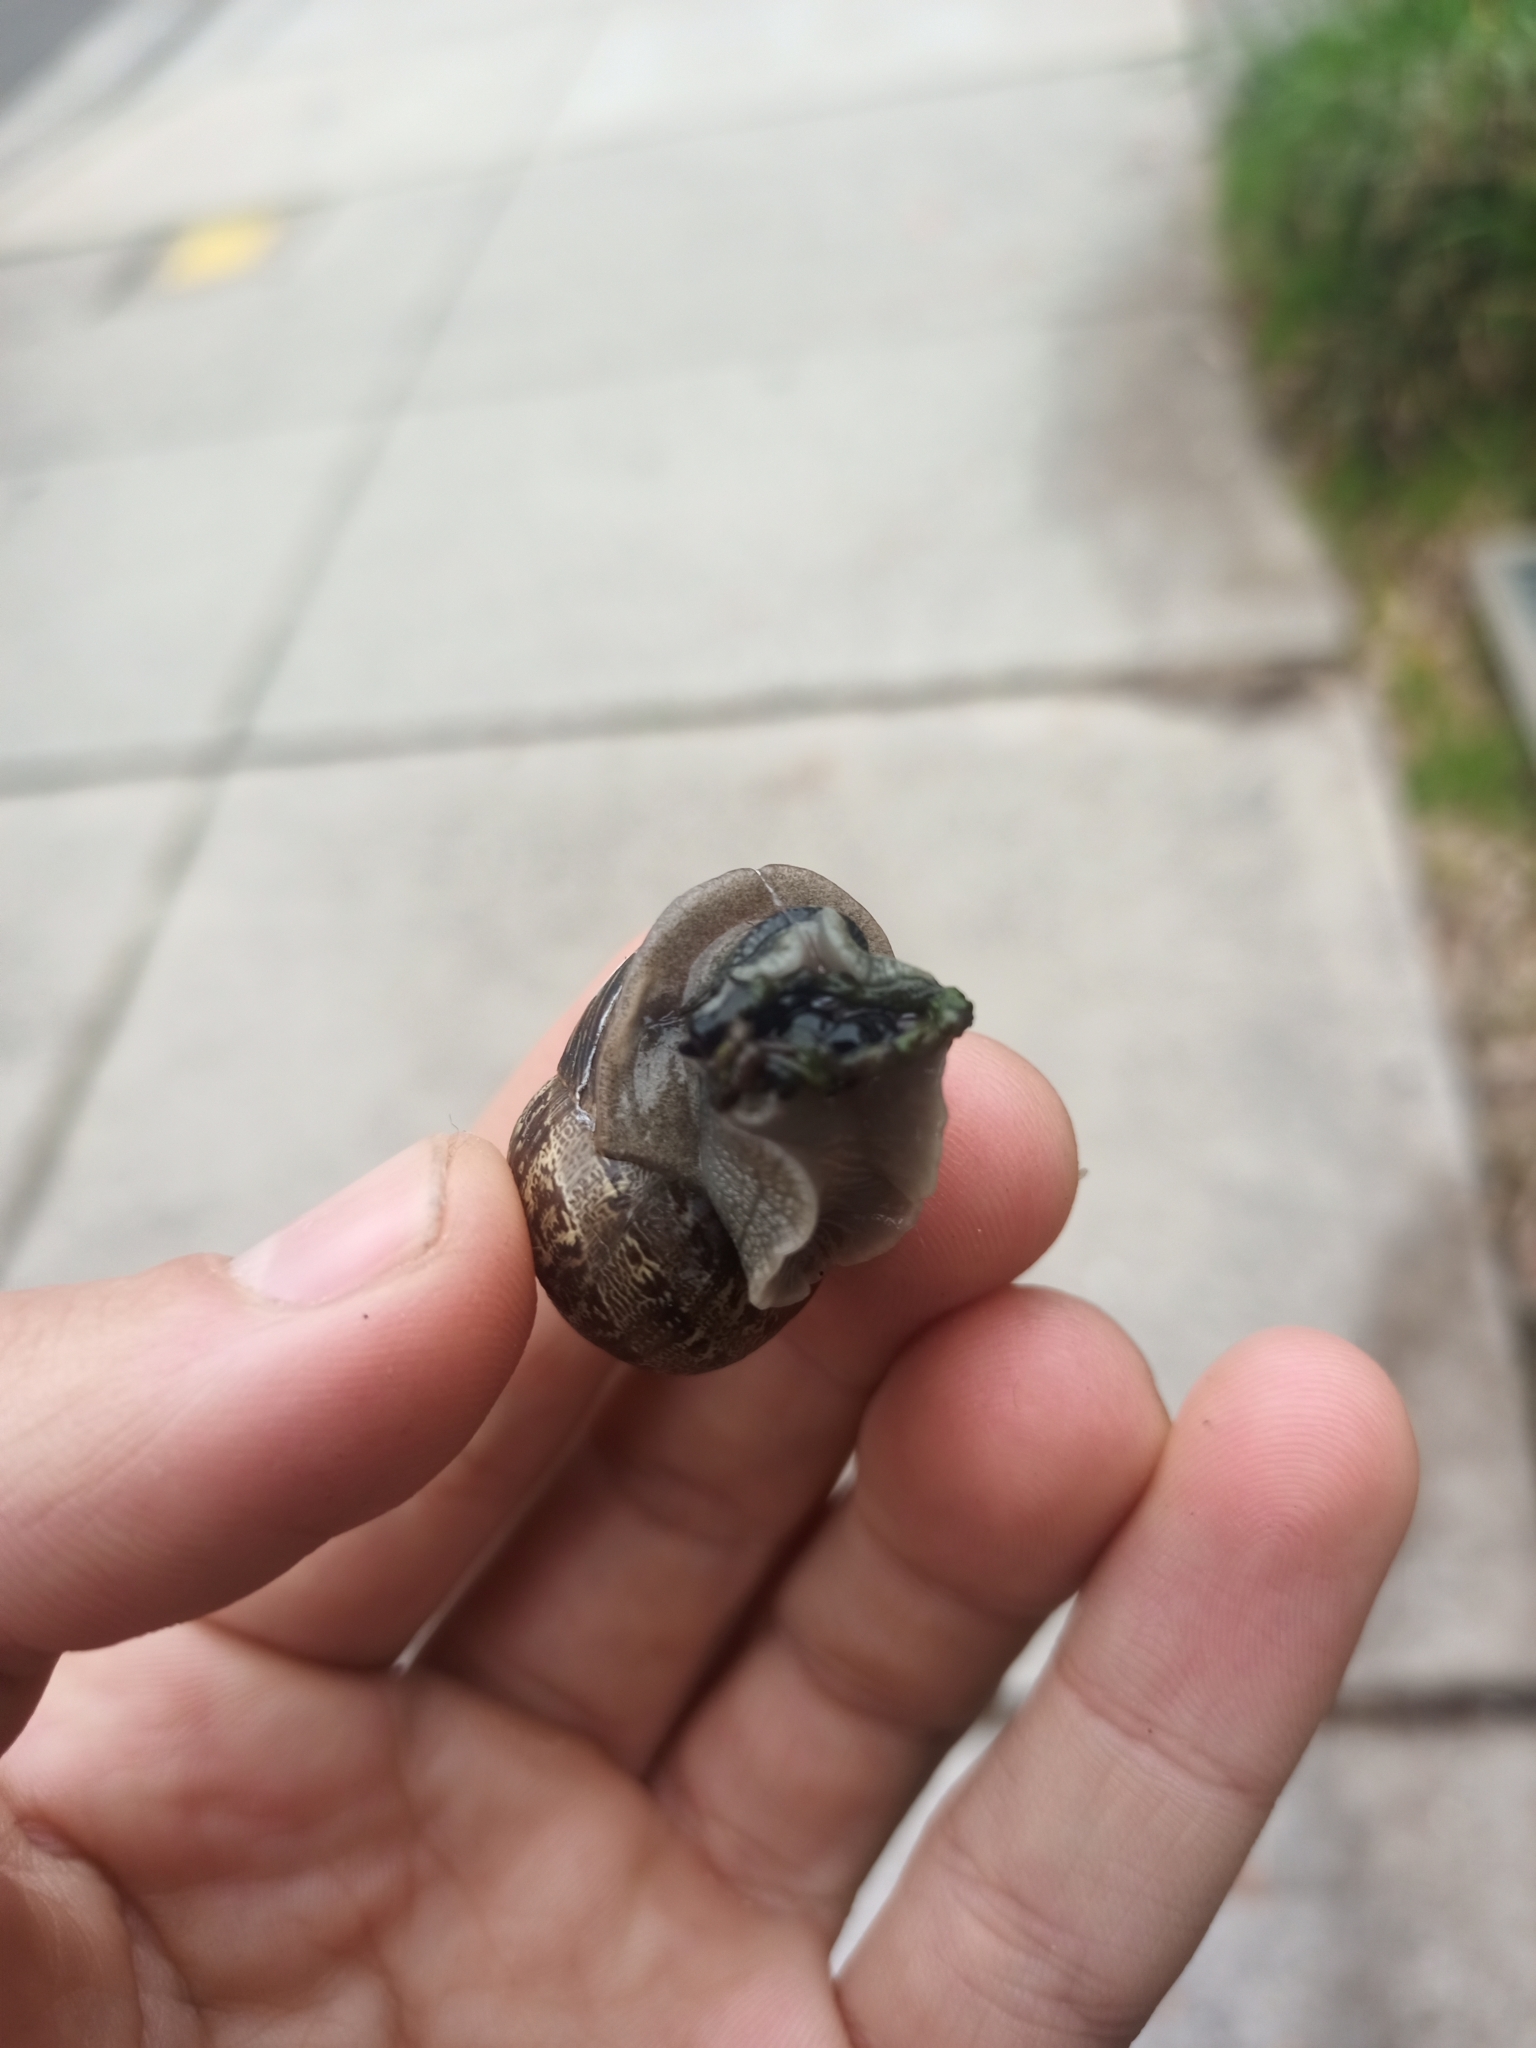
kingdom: Animalia
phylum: Mollusca
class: Gastropoda
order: Stylommatophora
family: Helicidae
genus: Cornu
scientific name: Cornu aspersum
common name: Brown garden snail
